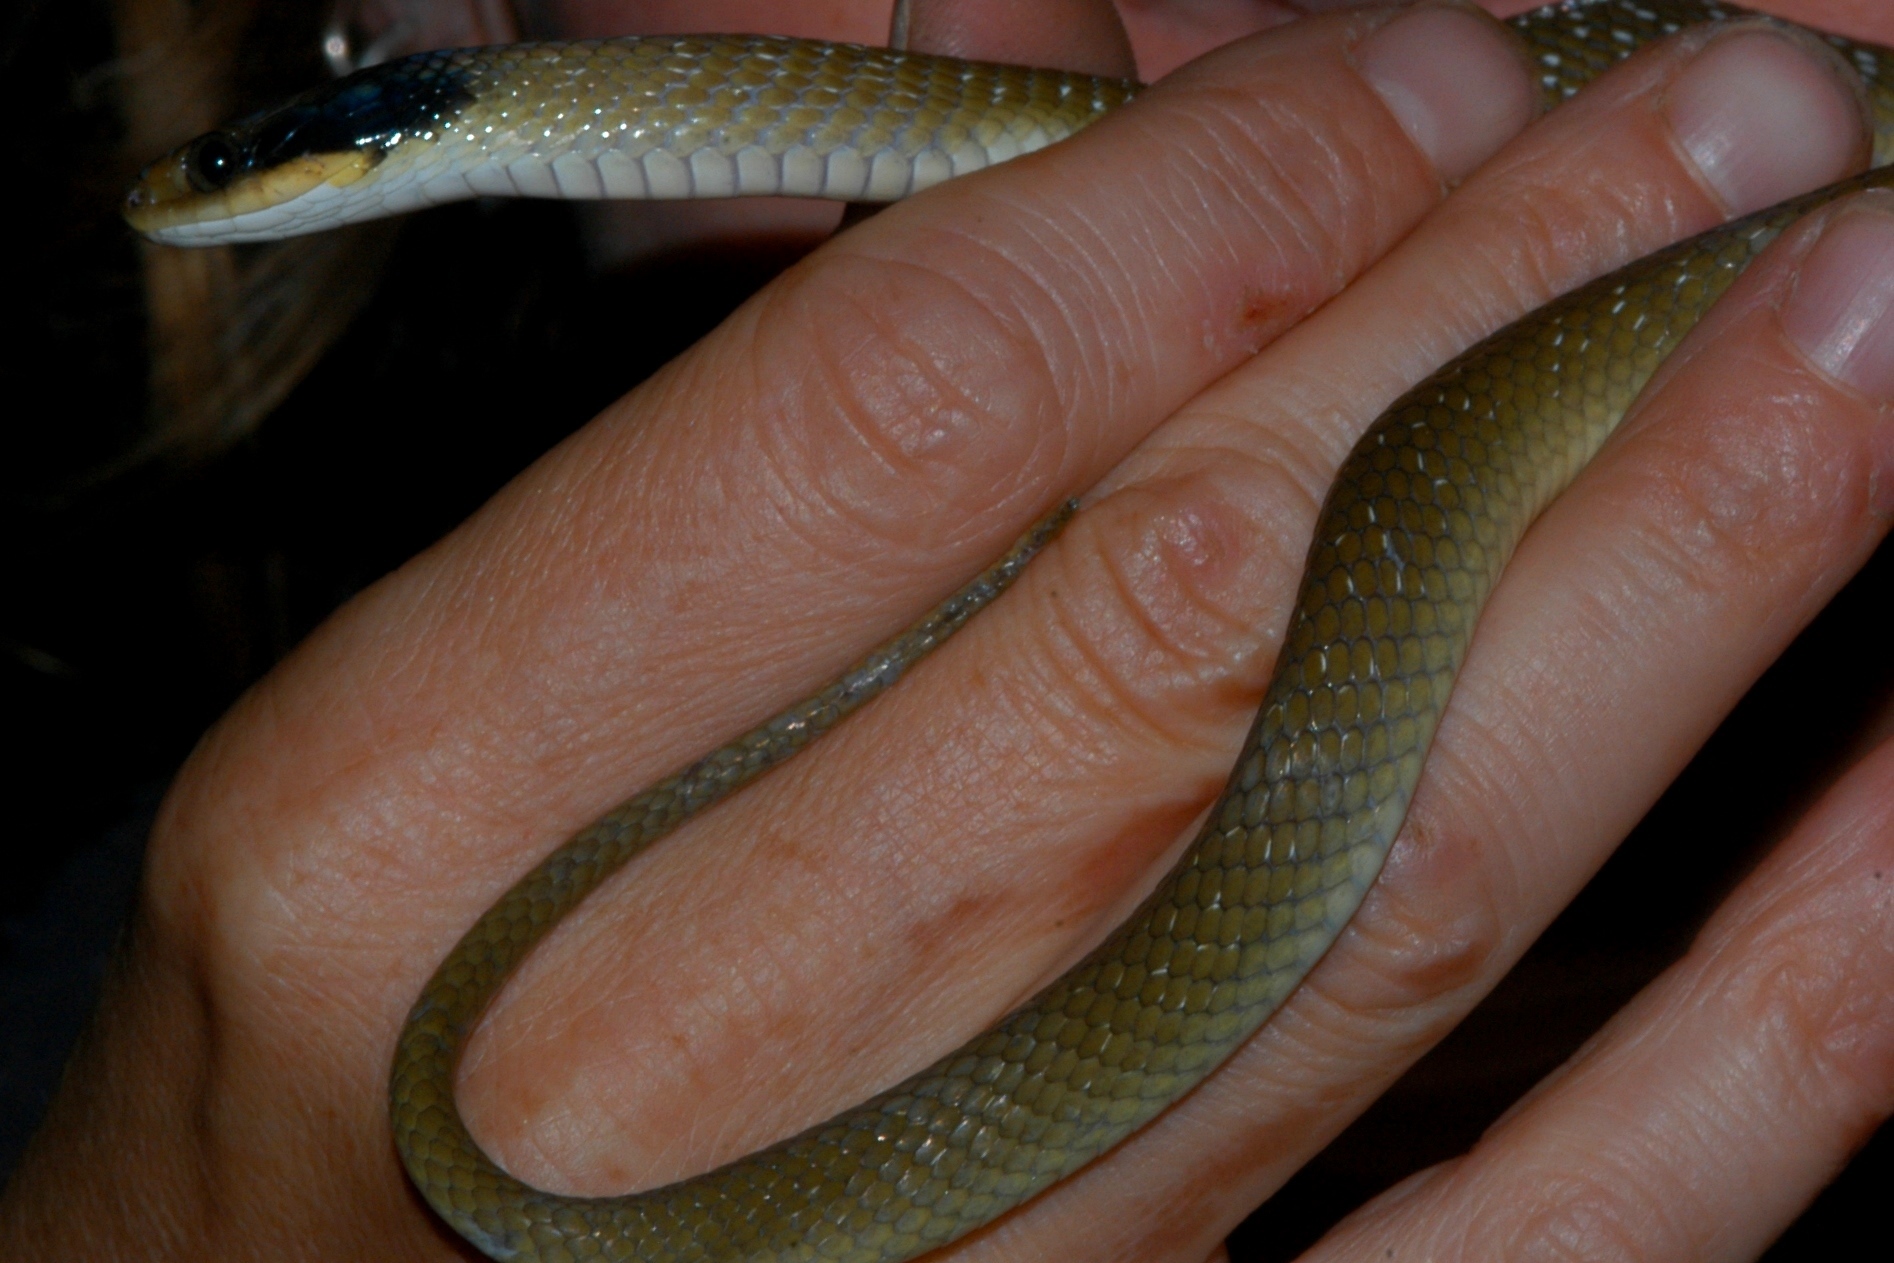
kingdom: Animalia
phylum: Chordata
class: Squamata
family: Colubridae
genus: Crotaphopeltis
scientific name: Crotaphopeltis hotamboeia
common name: Red-lipped snake
